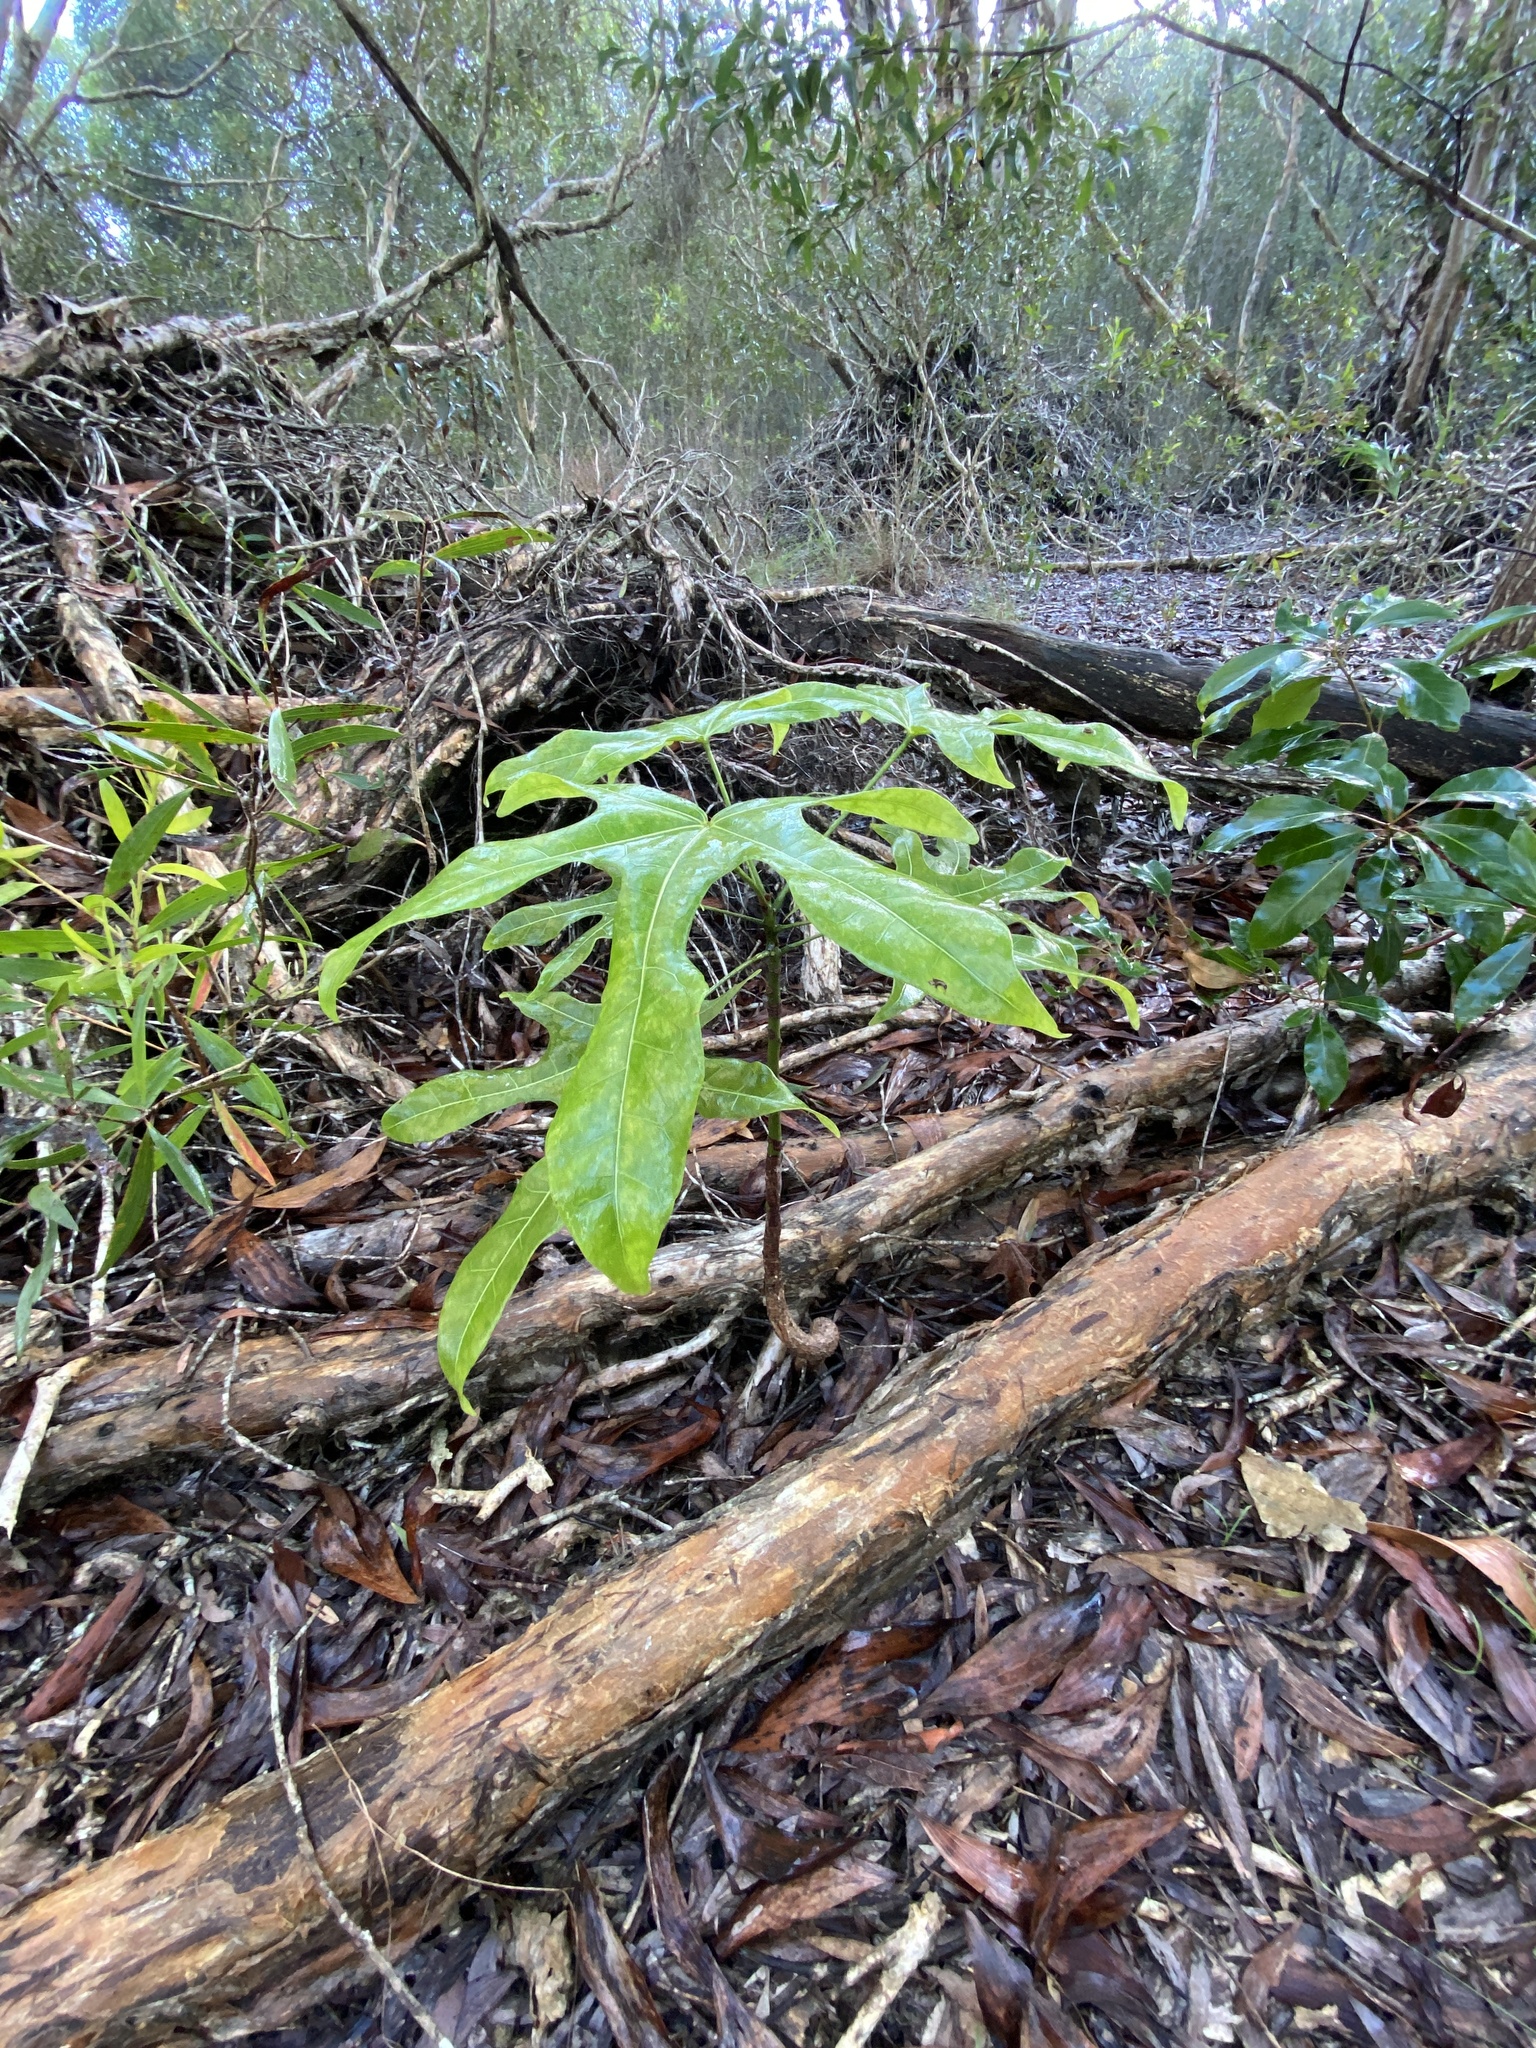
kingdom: Plantae
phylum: Tracheophyta
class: Magnoliopsida
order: Malvales
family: Malvaceae
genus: Brachychiton
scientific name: Brachychiton acerifolius
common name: Illawarra flame tree
